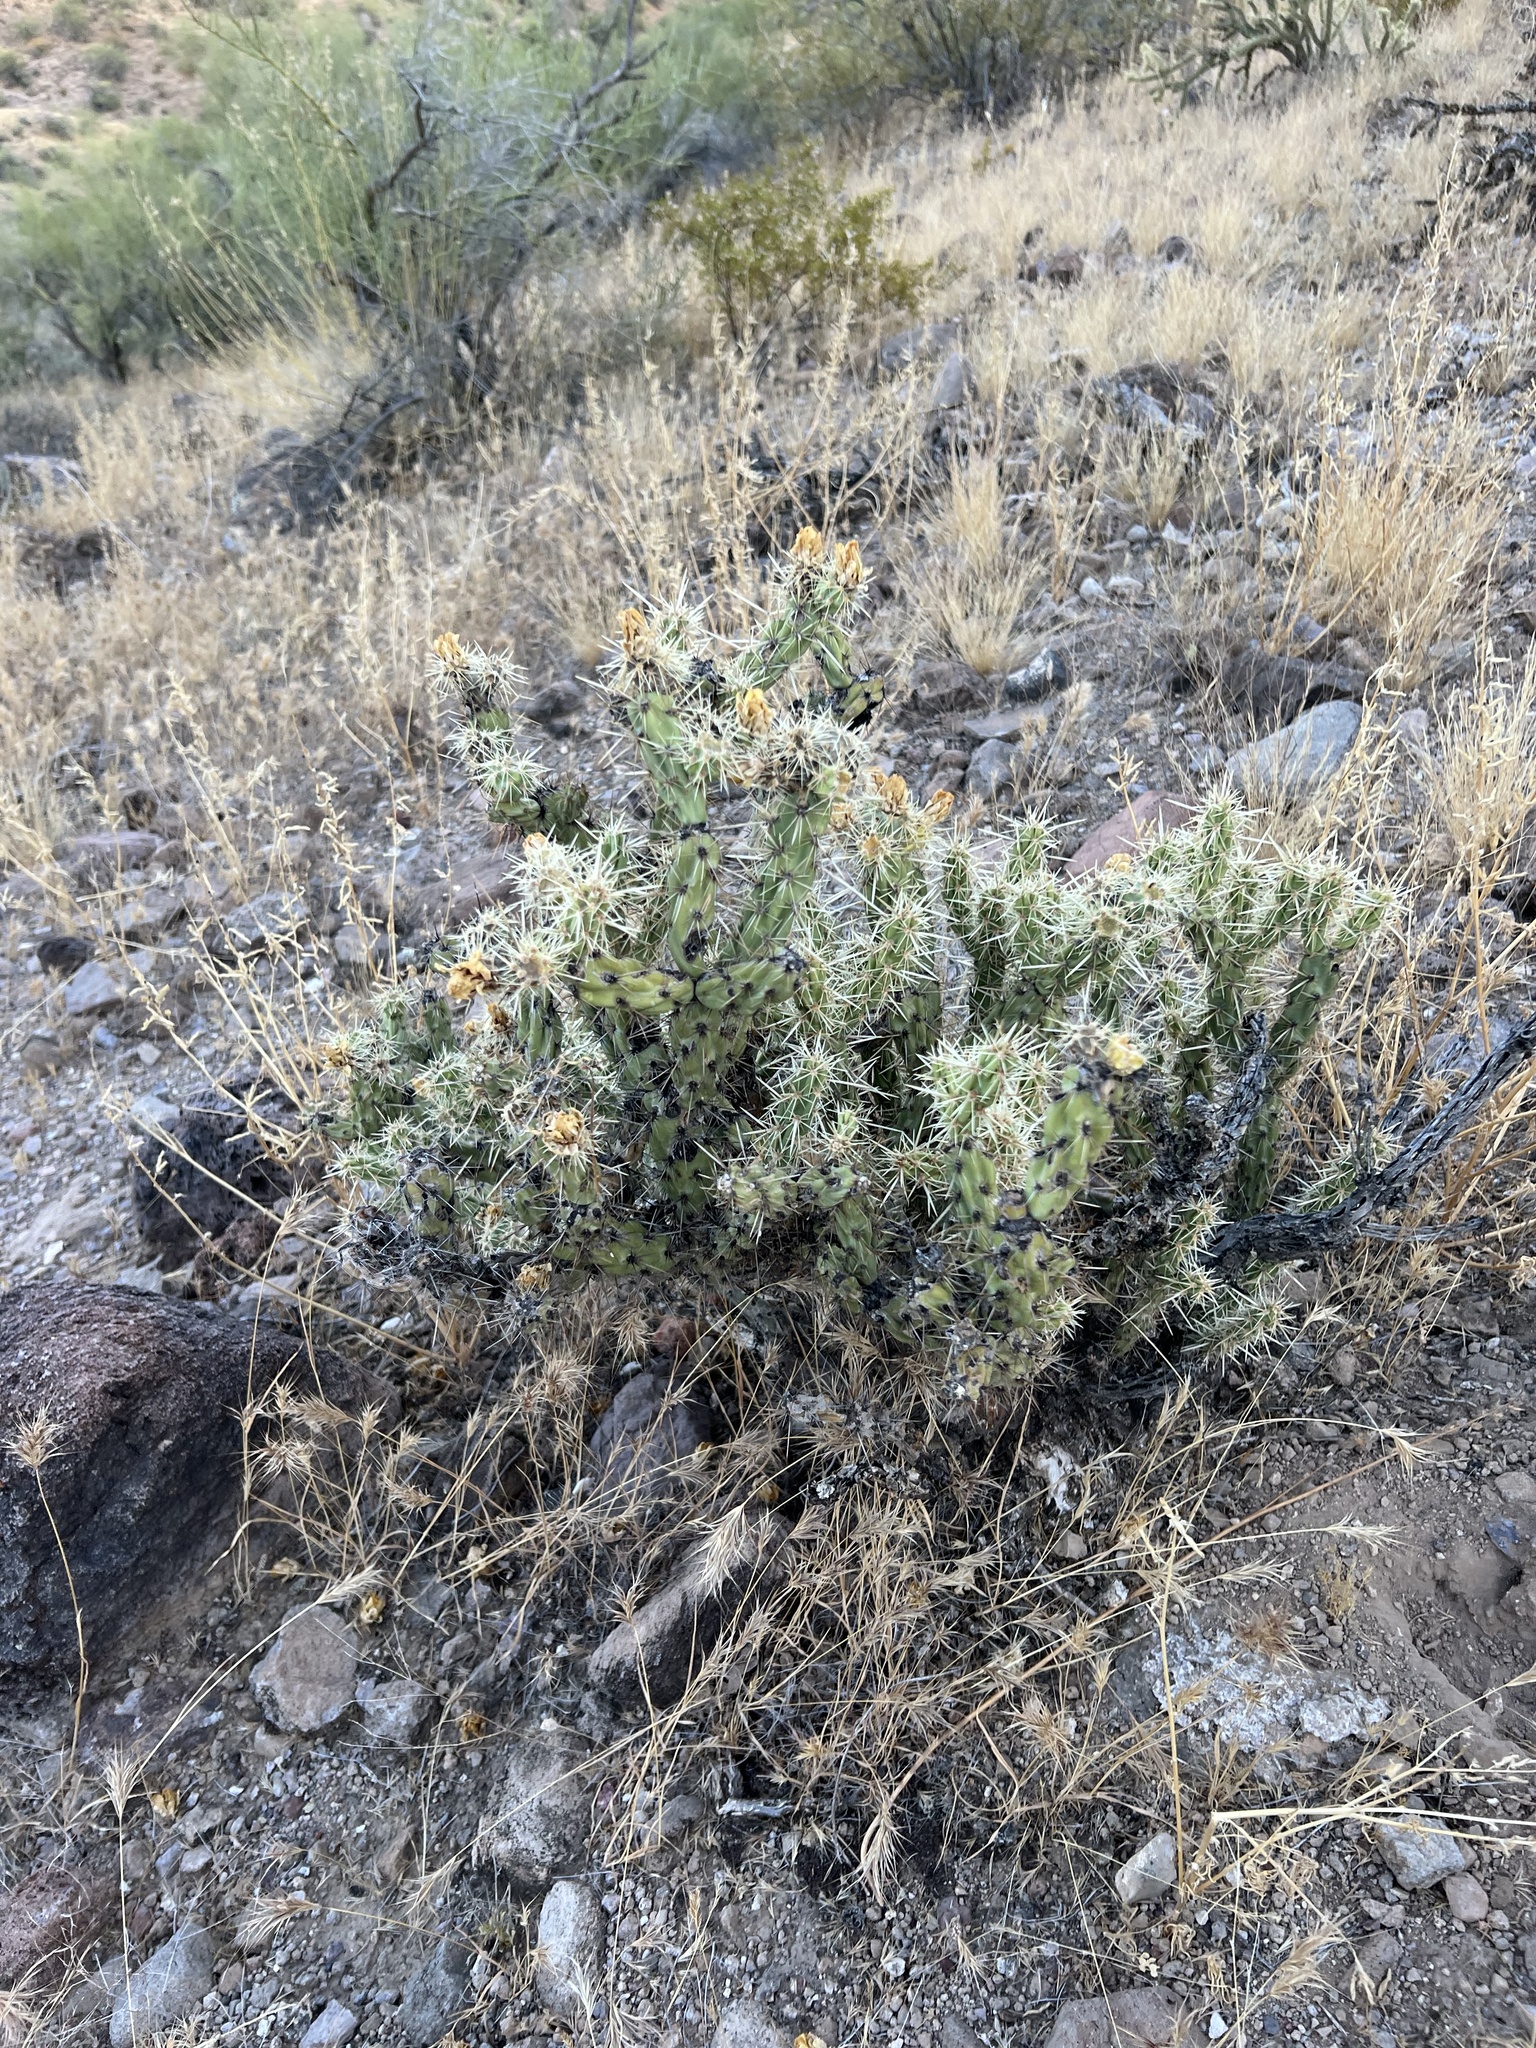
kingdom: Plantae
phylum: Tracheophyta
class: Magnoliopsida
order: Caryophyllales
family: Cactaceae
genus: Cylindropuntia
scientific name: Cylindropuntia acanthocarpa
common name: Buckhorn cholla
